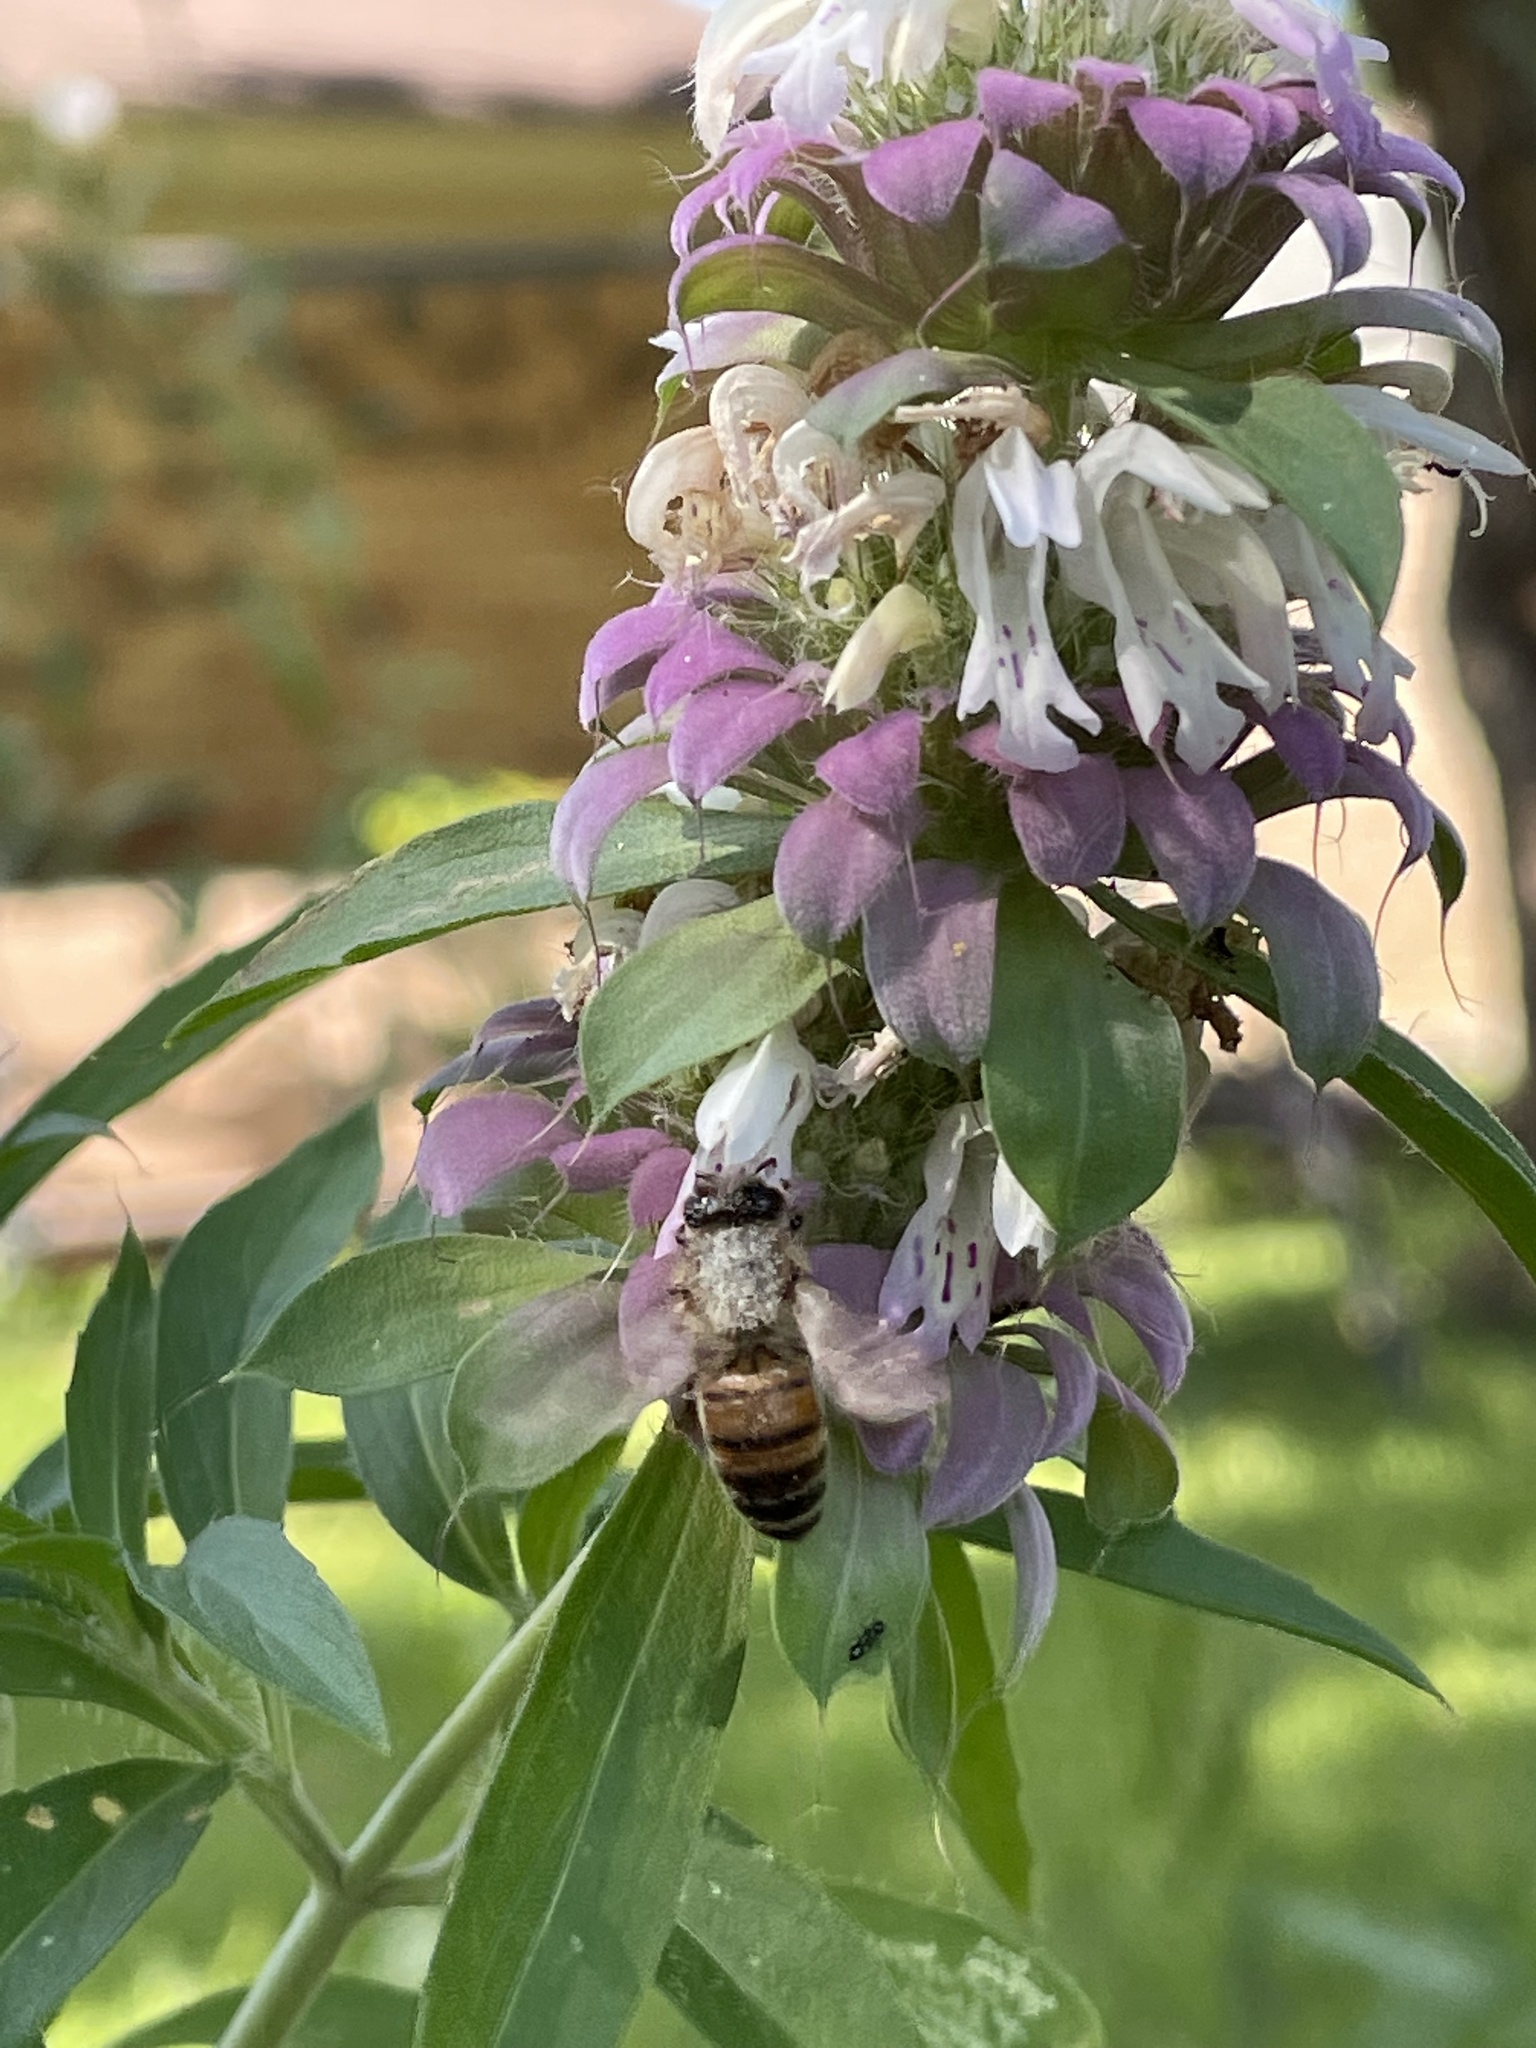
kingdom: Animalia
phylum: Arthropoda
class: Insecta
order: Hymenoptera
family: Apidae
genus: Apis
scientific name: Apis mellifera
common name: Honey bee
